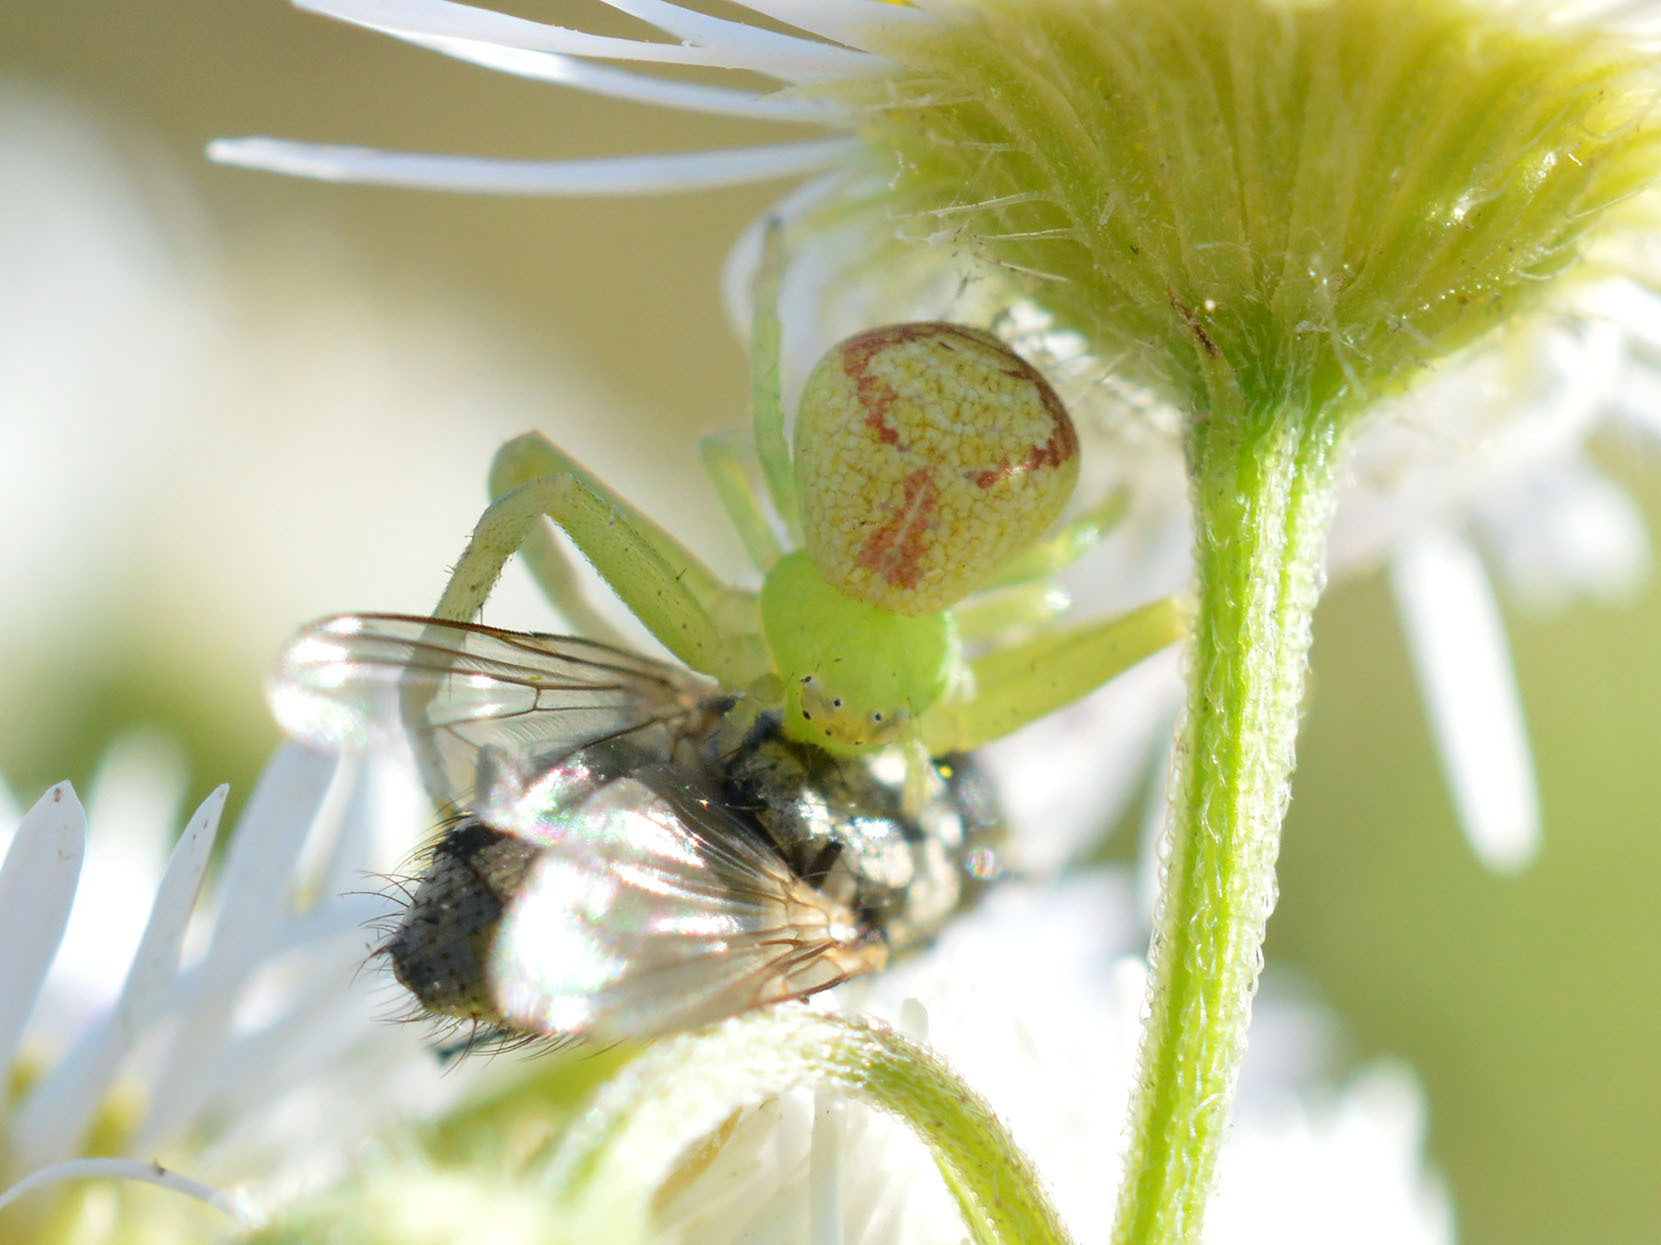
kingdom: Animalia
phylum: Arthropoda
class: Arachnida
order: Araneae
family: Thomisidae
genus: Ebrechtella
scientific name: Ebrechtella tricuspidata
